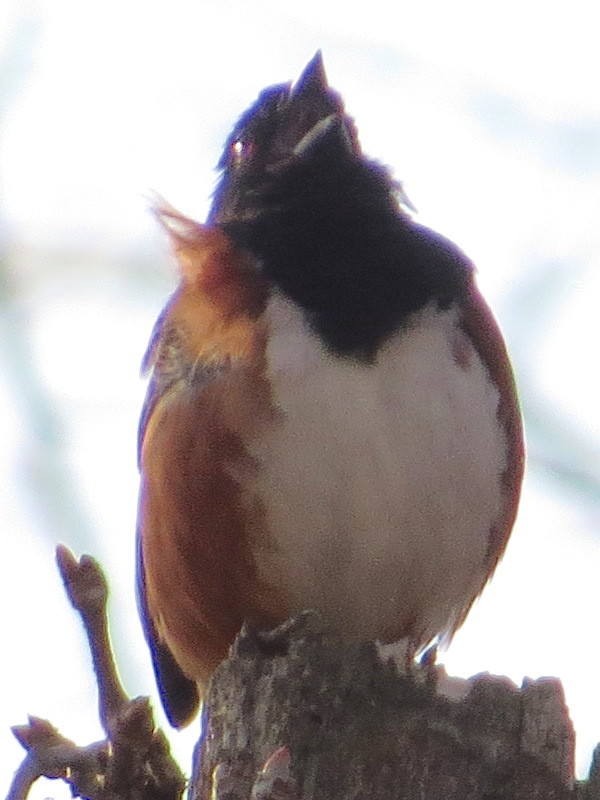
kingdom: Animalia
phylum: Chordata
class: Aves
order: Passeriformes
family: Passerellidae
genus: Pipilo
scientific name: Pipilo erythrophthalmus
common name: Eastern towhee
